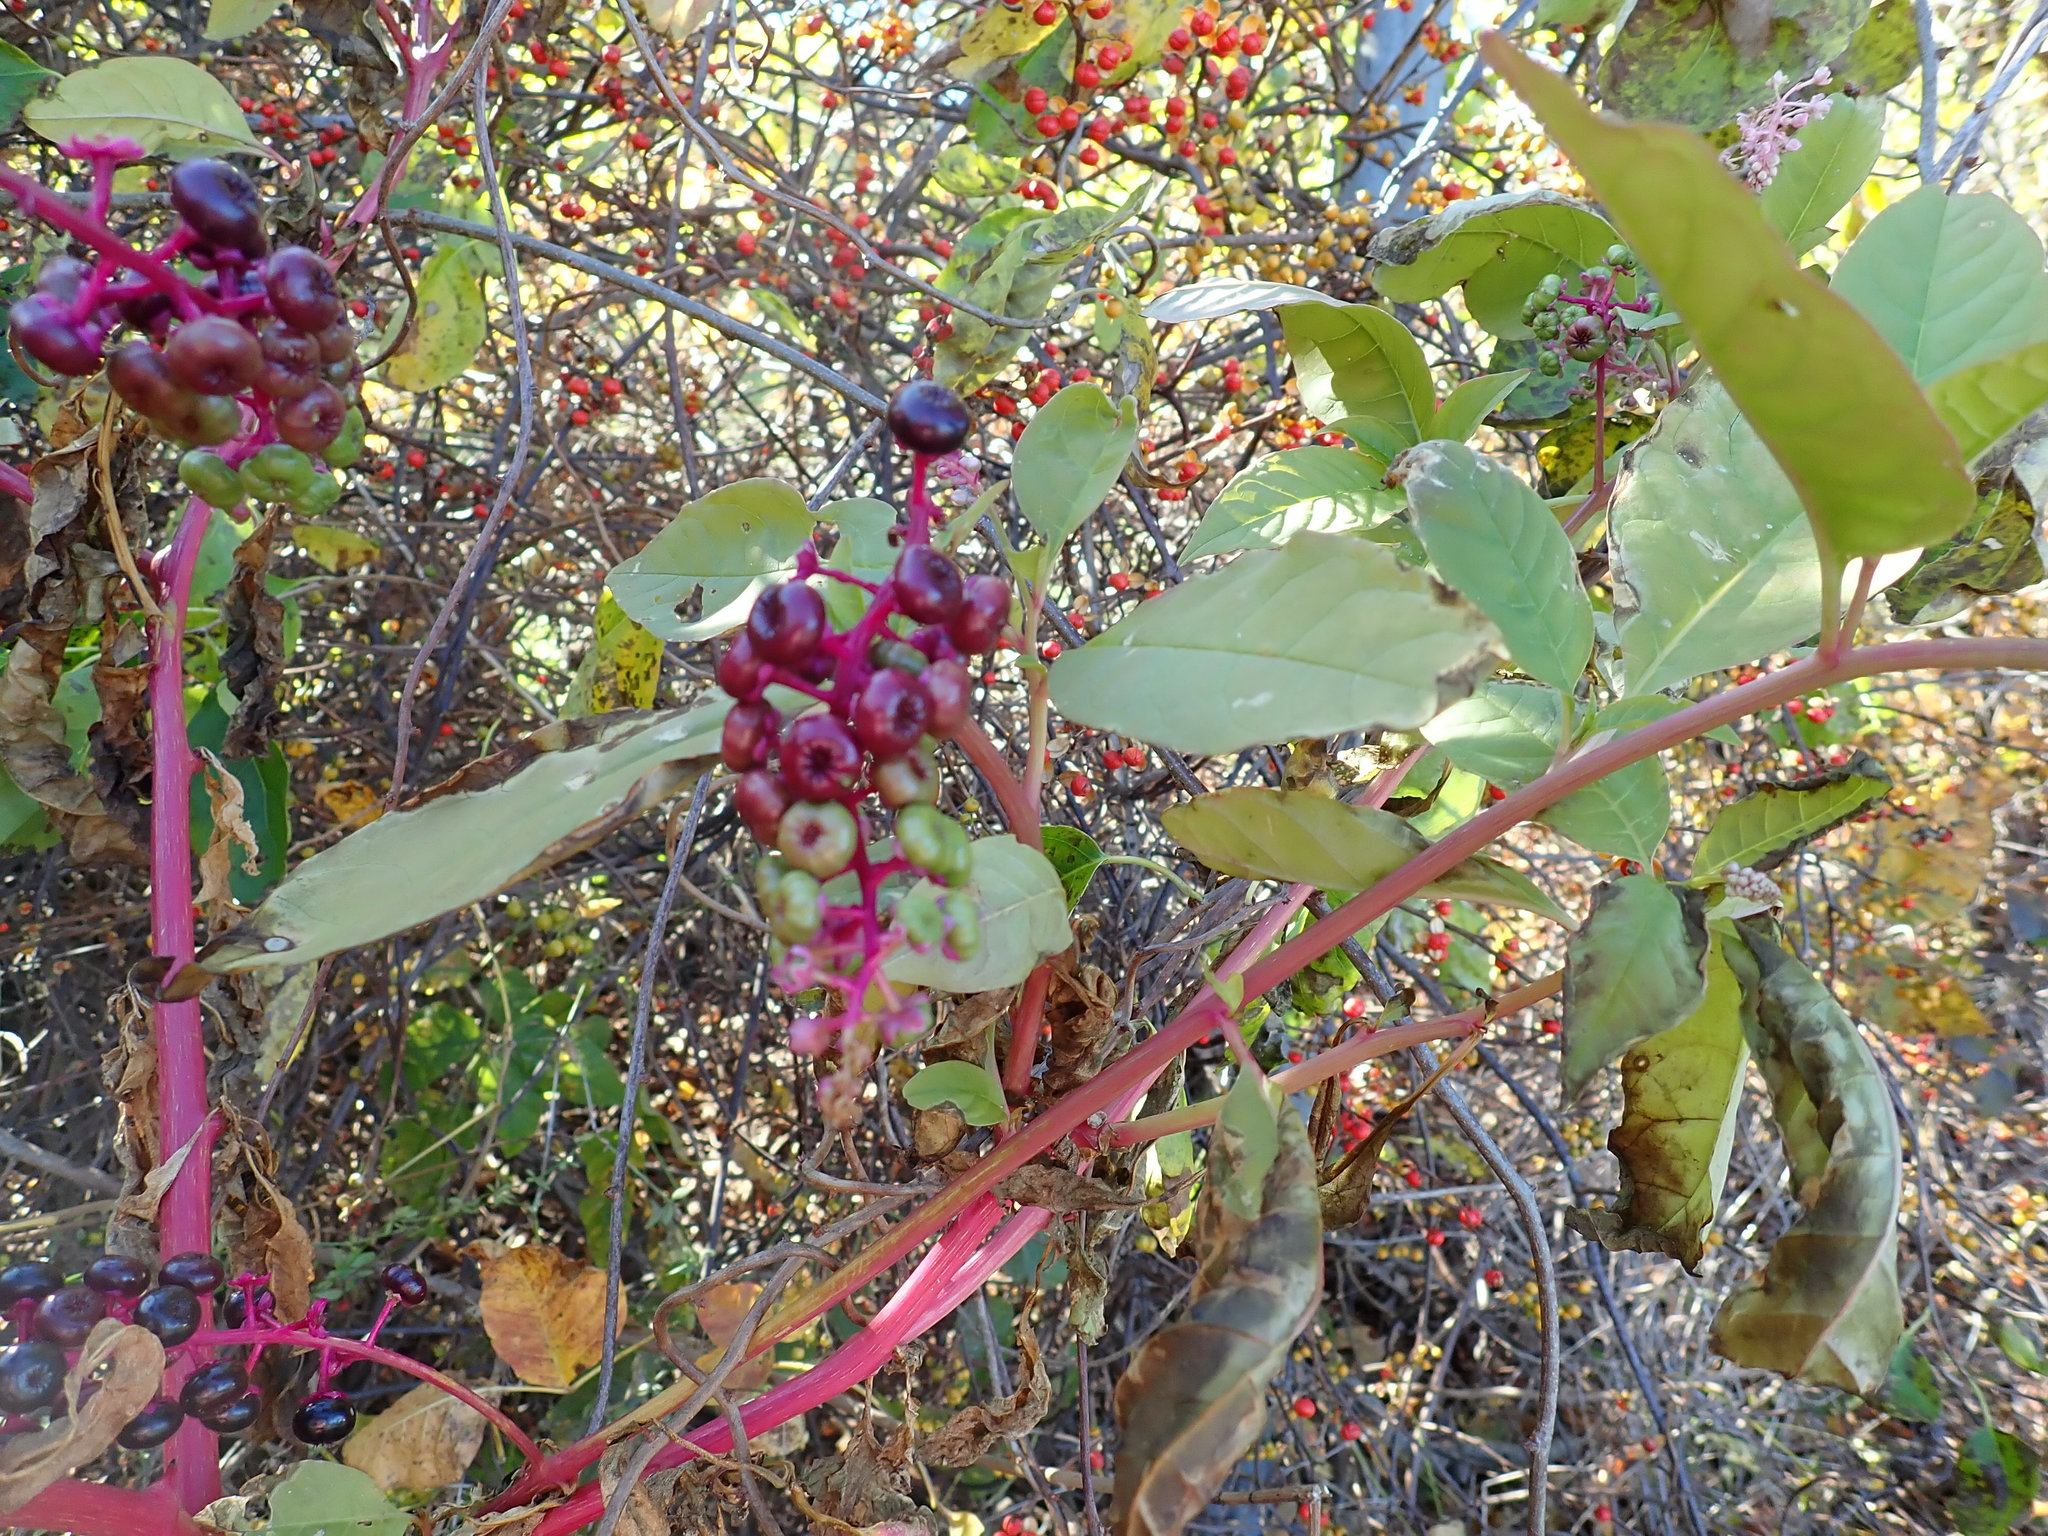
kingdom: Plantae
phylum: Tracheophyta
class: Magnoliopsida
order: Caryophyllales
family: Phytolaccaceae
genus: Phytolacca
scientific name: Phytolacca americana
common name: American pokeweed
